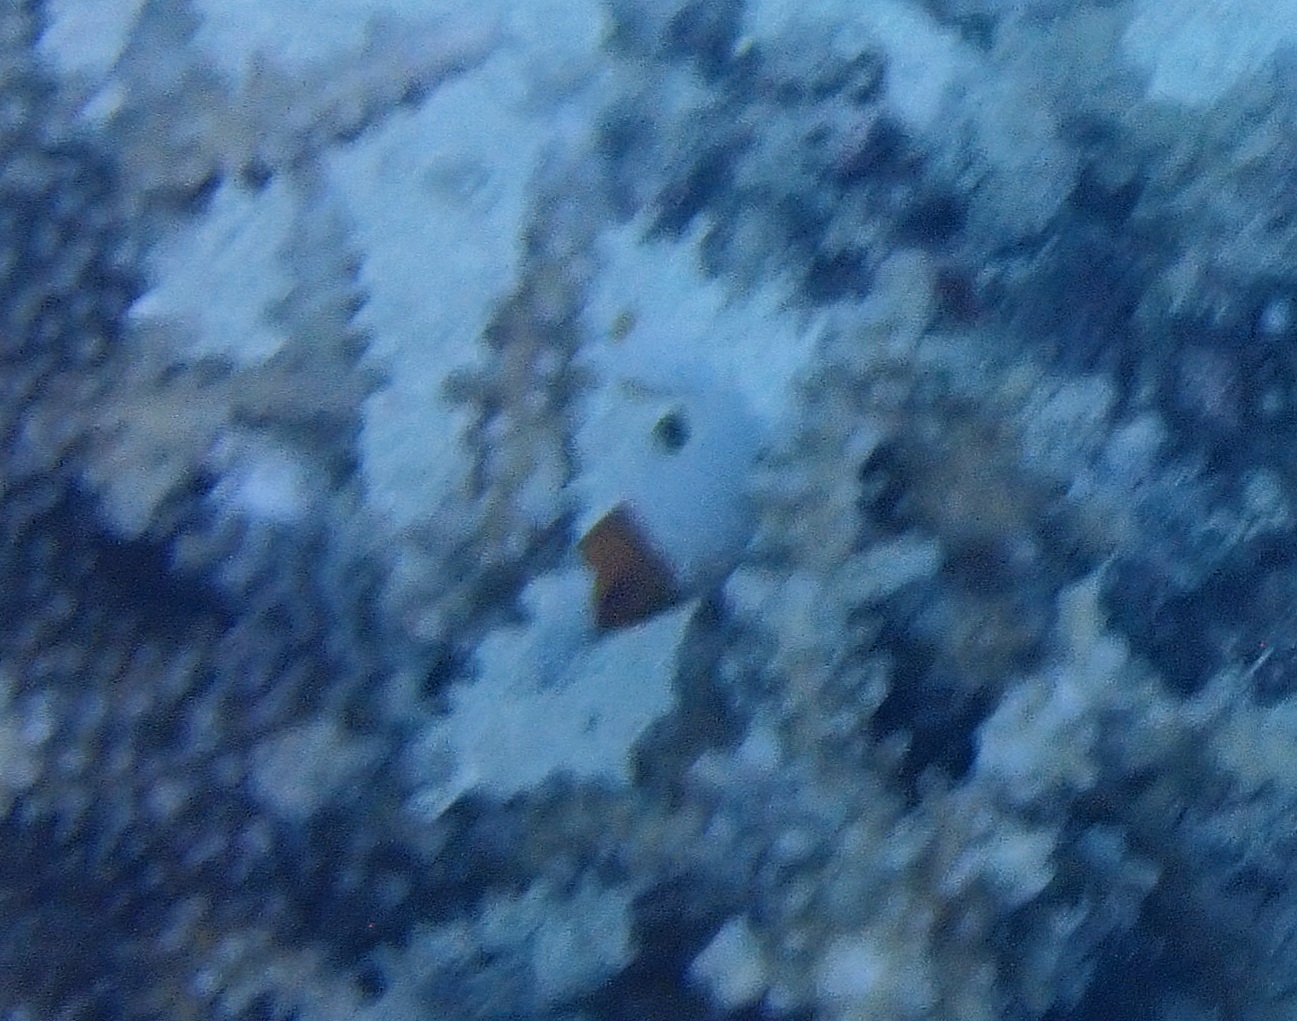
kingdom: Animalia
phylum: Chordata
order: Perciformes
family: Scaridae
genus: Cetoscarus
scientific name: Cetoscarus ocellatus
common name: Bicolor parrotfish
